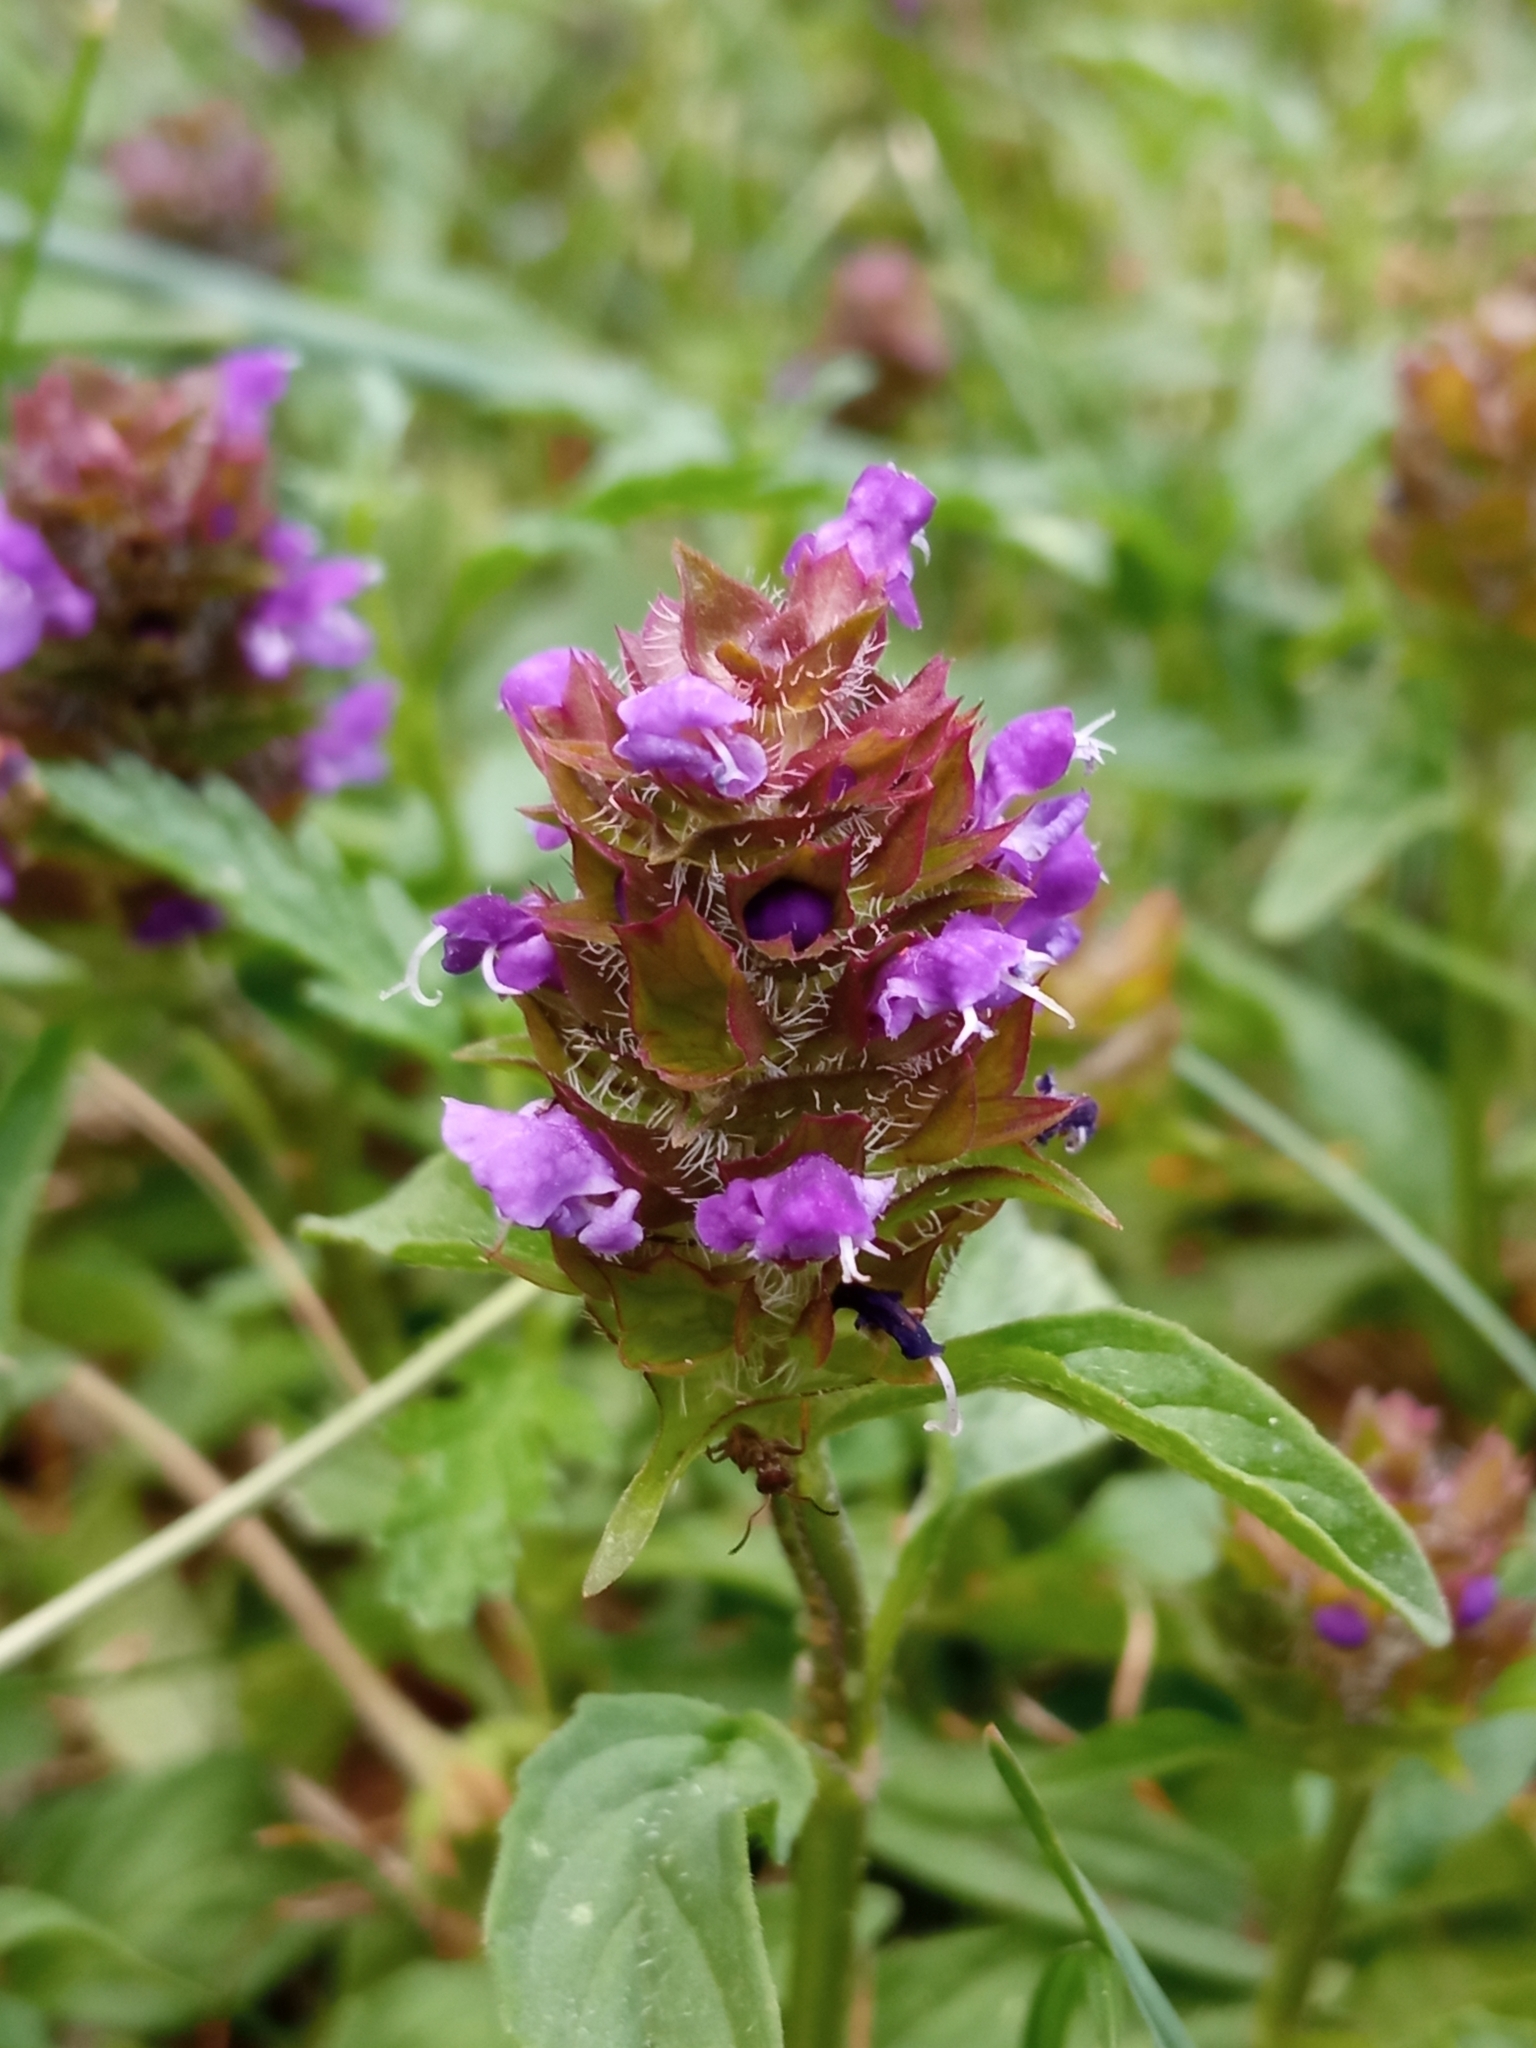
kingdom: Plantae
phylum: Tracheophyta
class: Magnoliopsida
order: Lamiales
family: Lamiaceae
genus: Prunella
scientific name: Prunella vulgaris
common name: Heal-all
